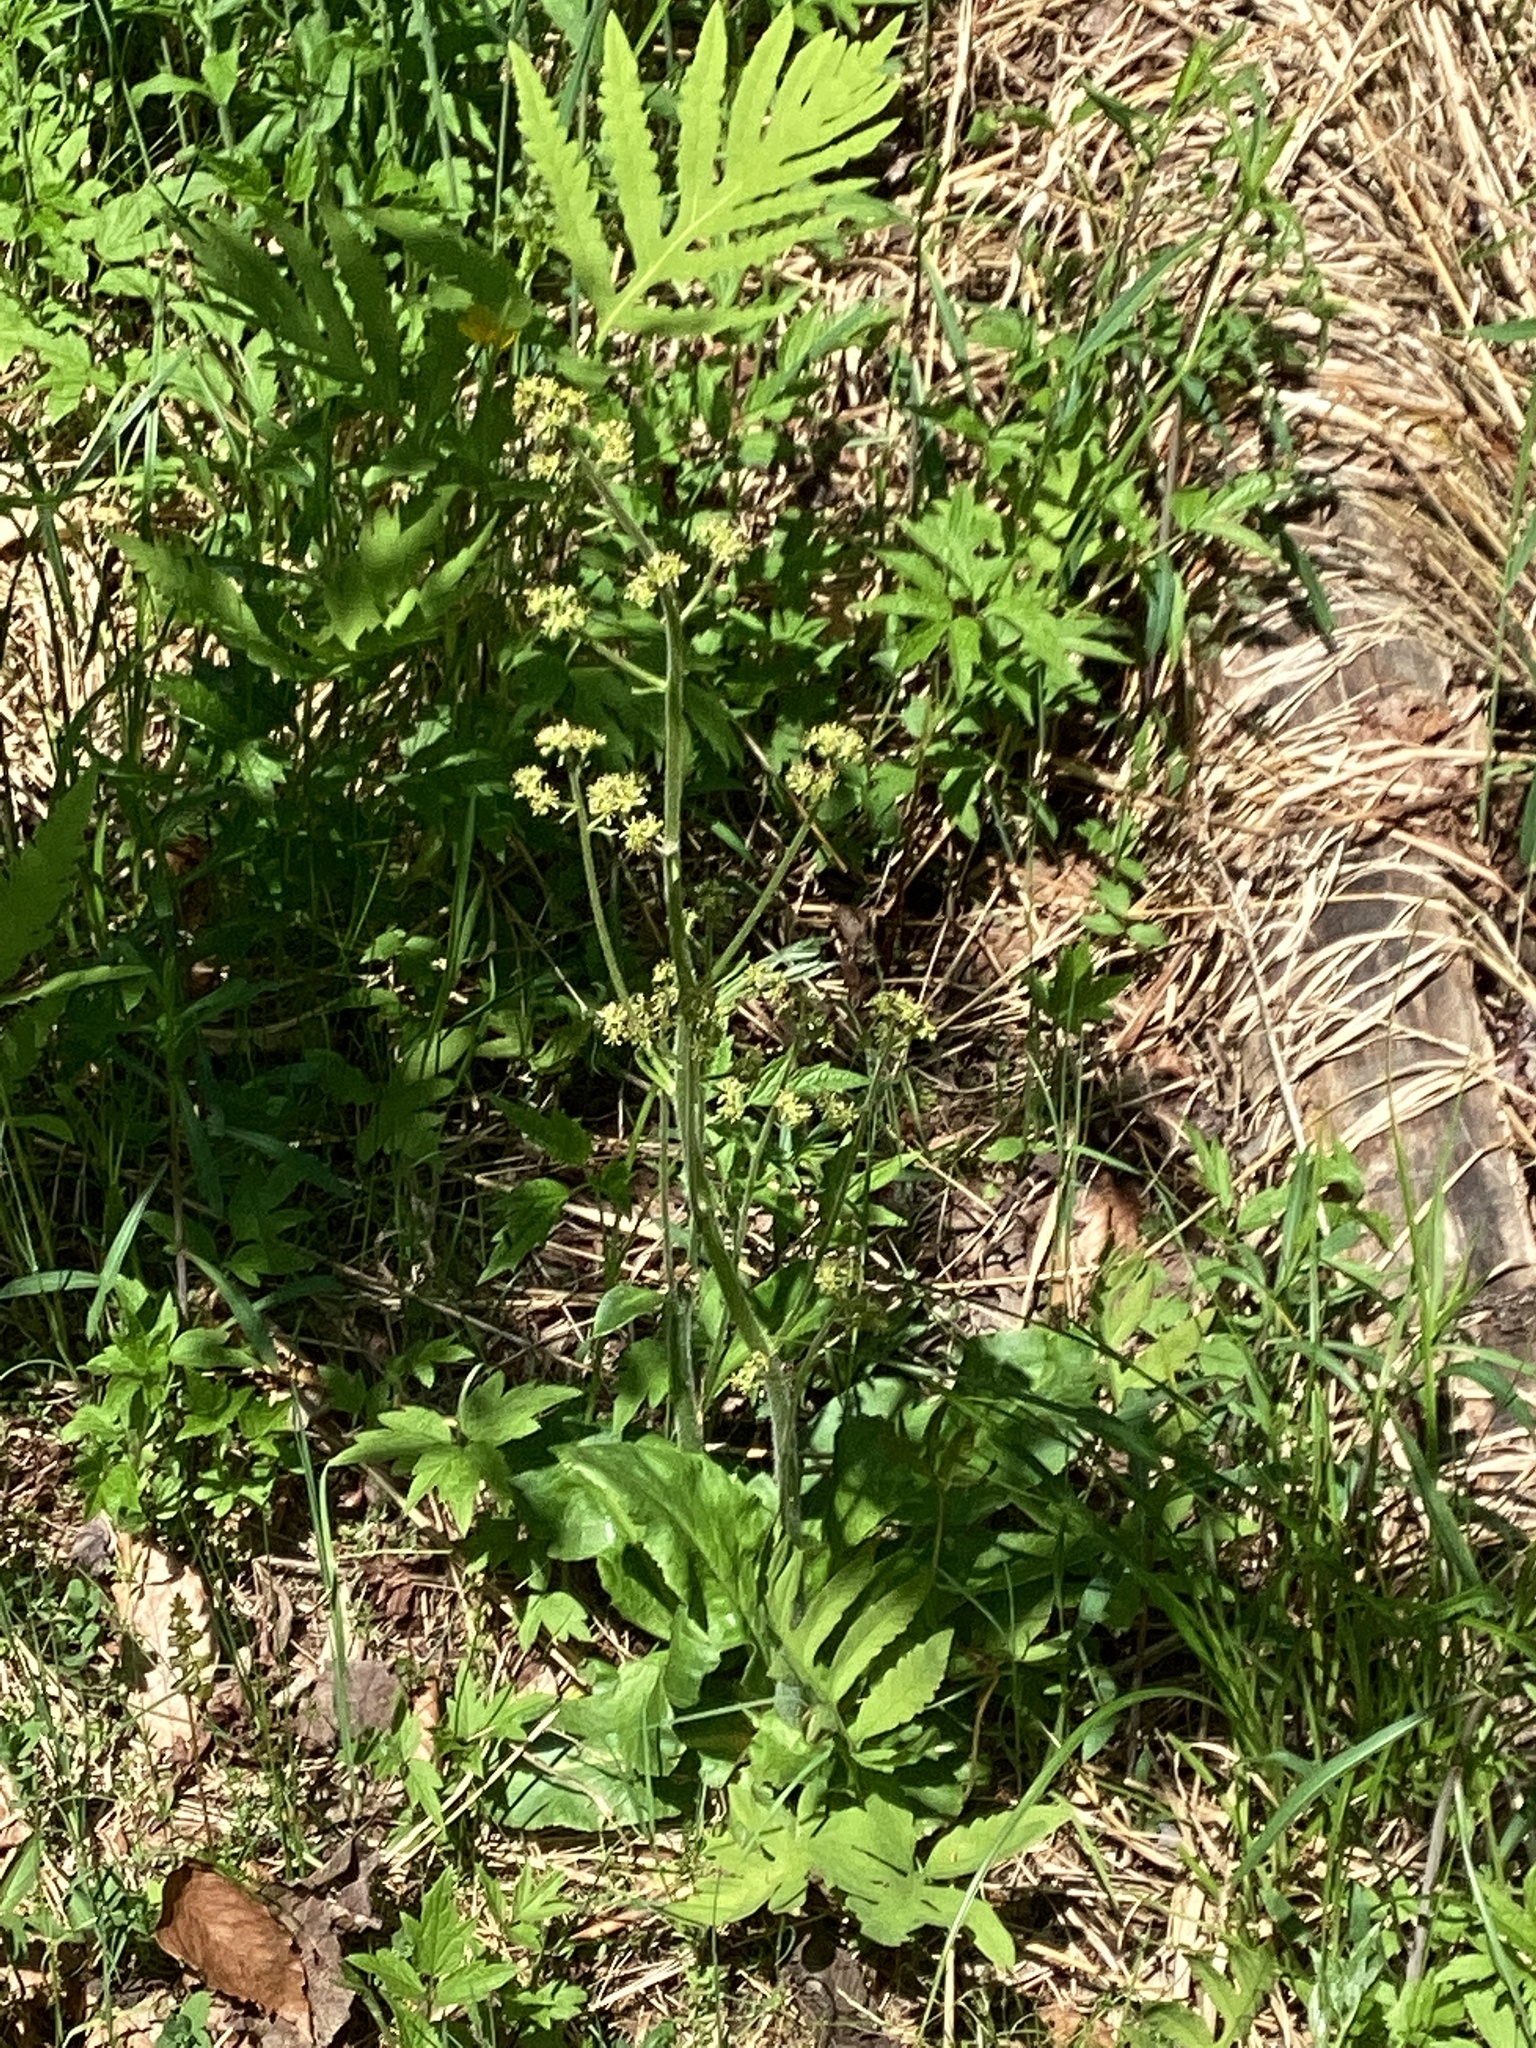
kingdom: Plantae
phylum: Tracheophyta
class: Magnoliopsida
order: Saxifragales
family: Saxifragaceae
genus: Micranthes
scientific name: Micranthes pensylvanica
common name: Marsh saxifrage
